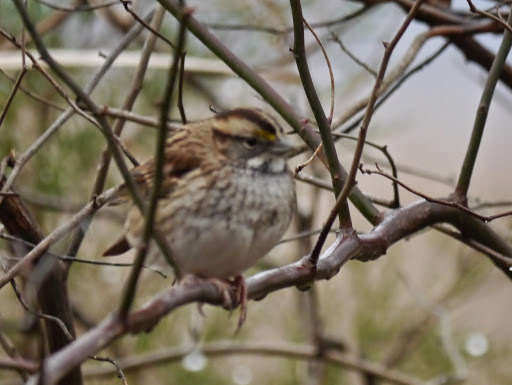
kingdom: Animalia
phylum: Chordata
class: Aves
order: Passeriformes
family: Passerellidae
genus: Zonotrichia
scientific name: Zonotrichia albicollis
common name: White-throated sparrow
